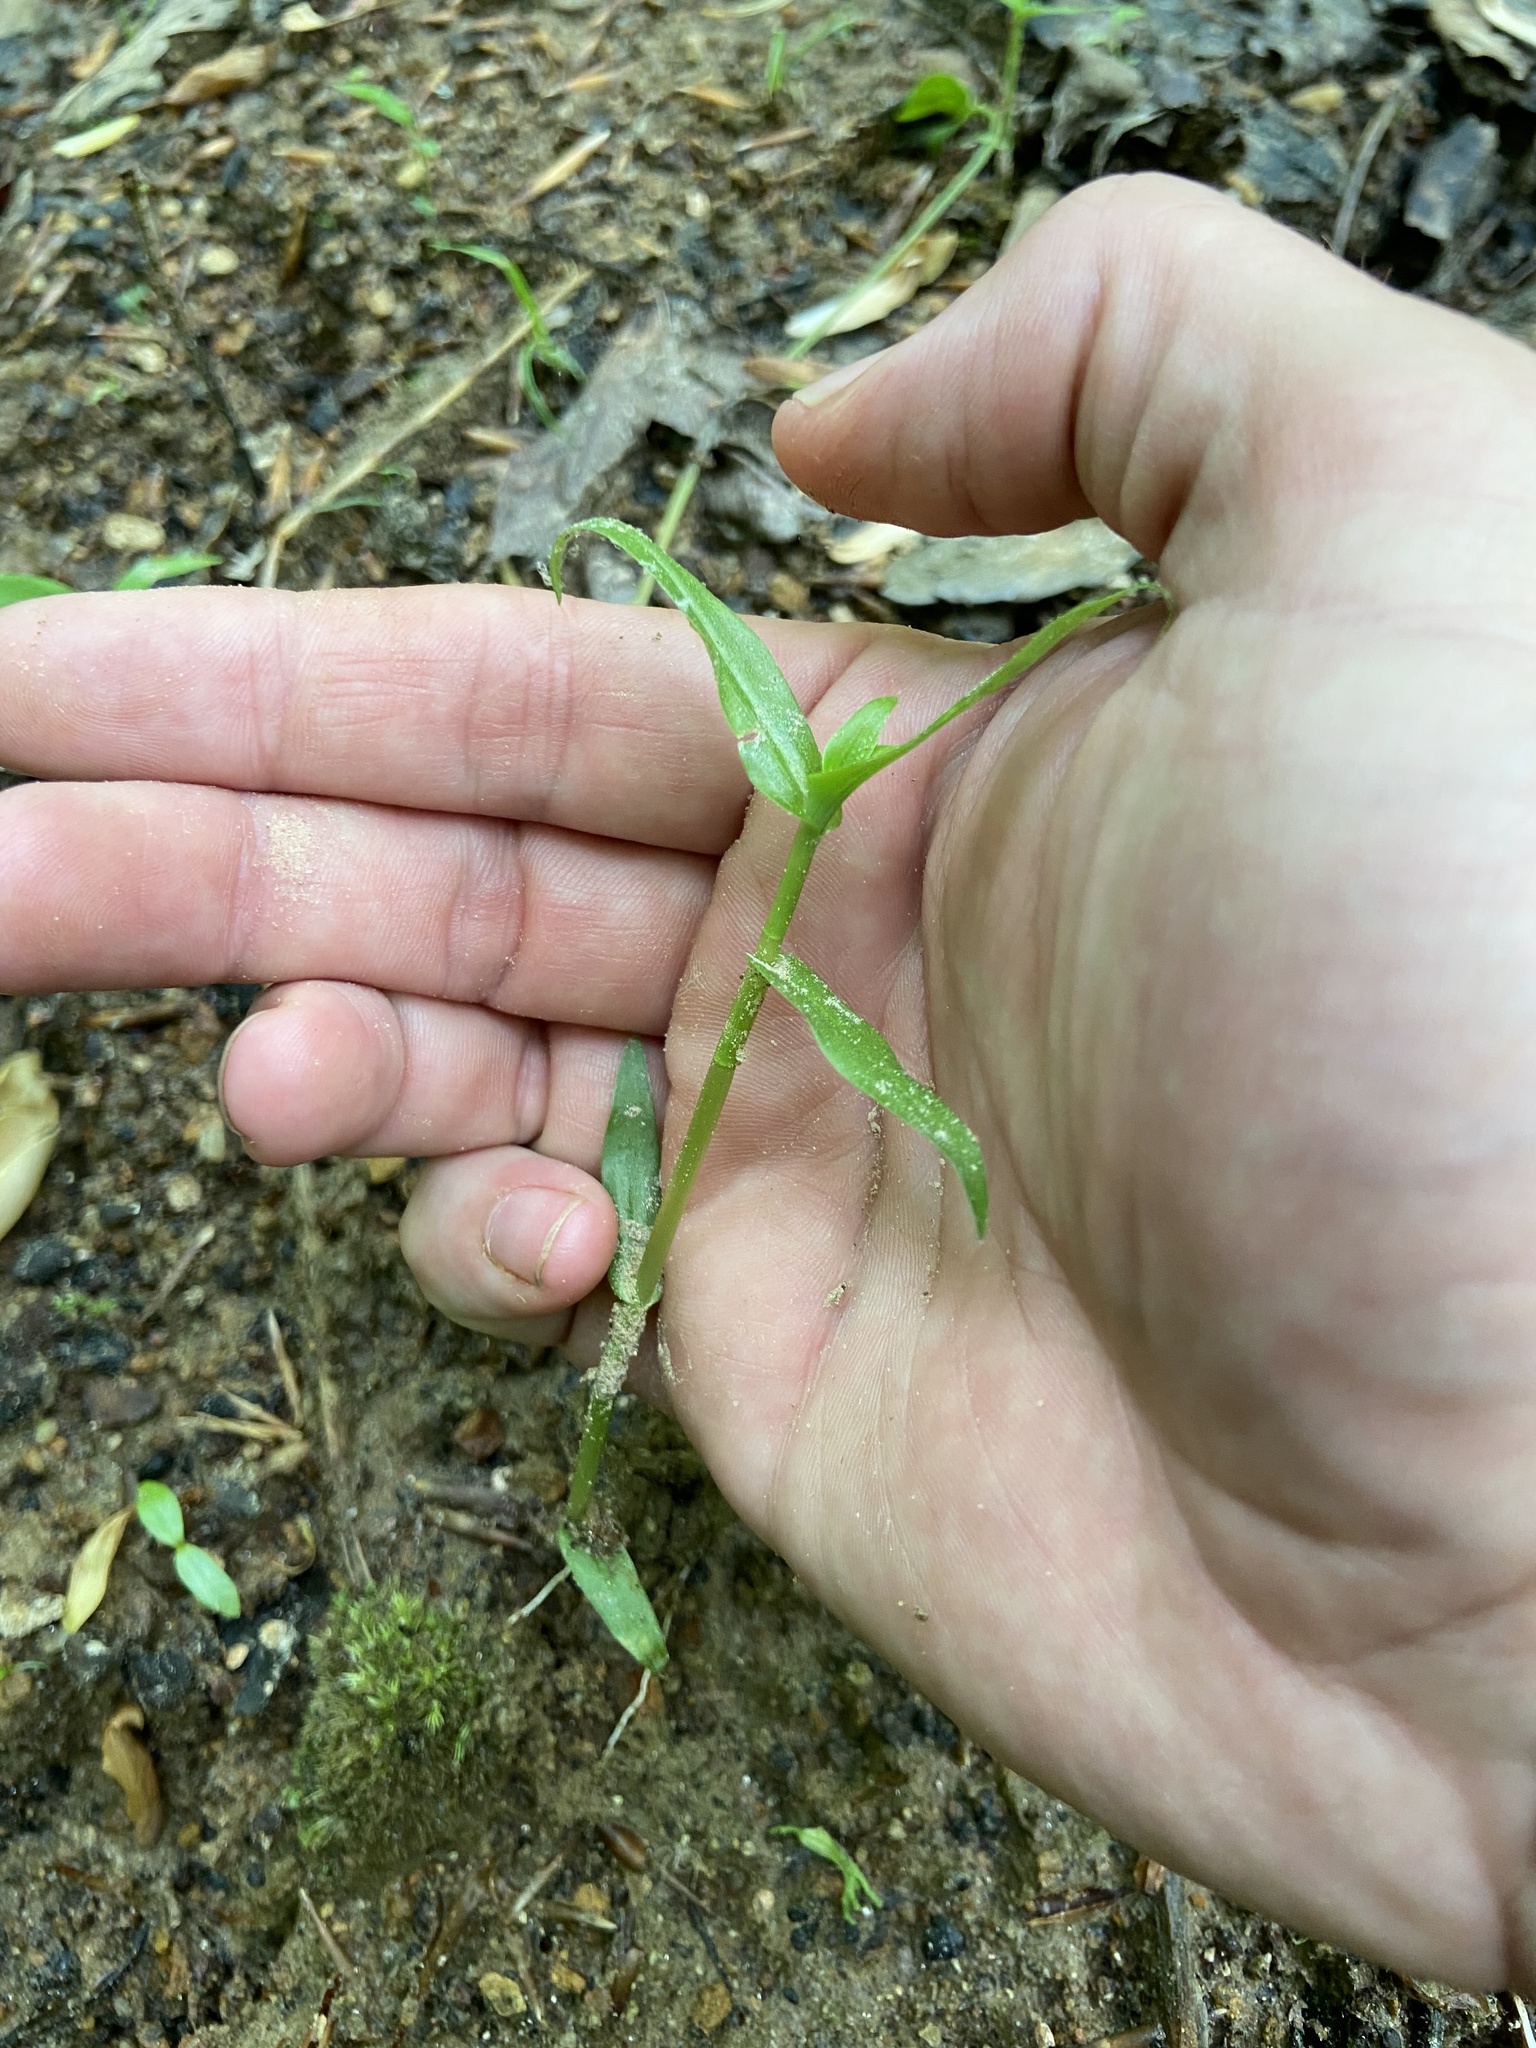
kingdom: Plantae
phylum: Tracheophyta
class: Liliopsida
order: Commelinales
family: Commelinaceae
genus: Murdannia
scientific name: Murdannia keisak
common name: Wartremoving herb
